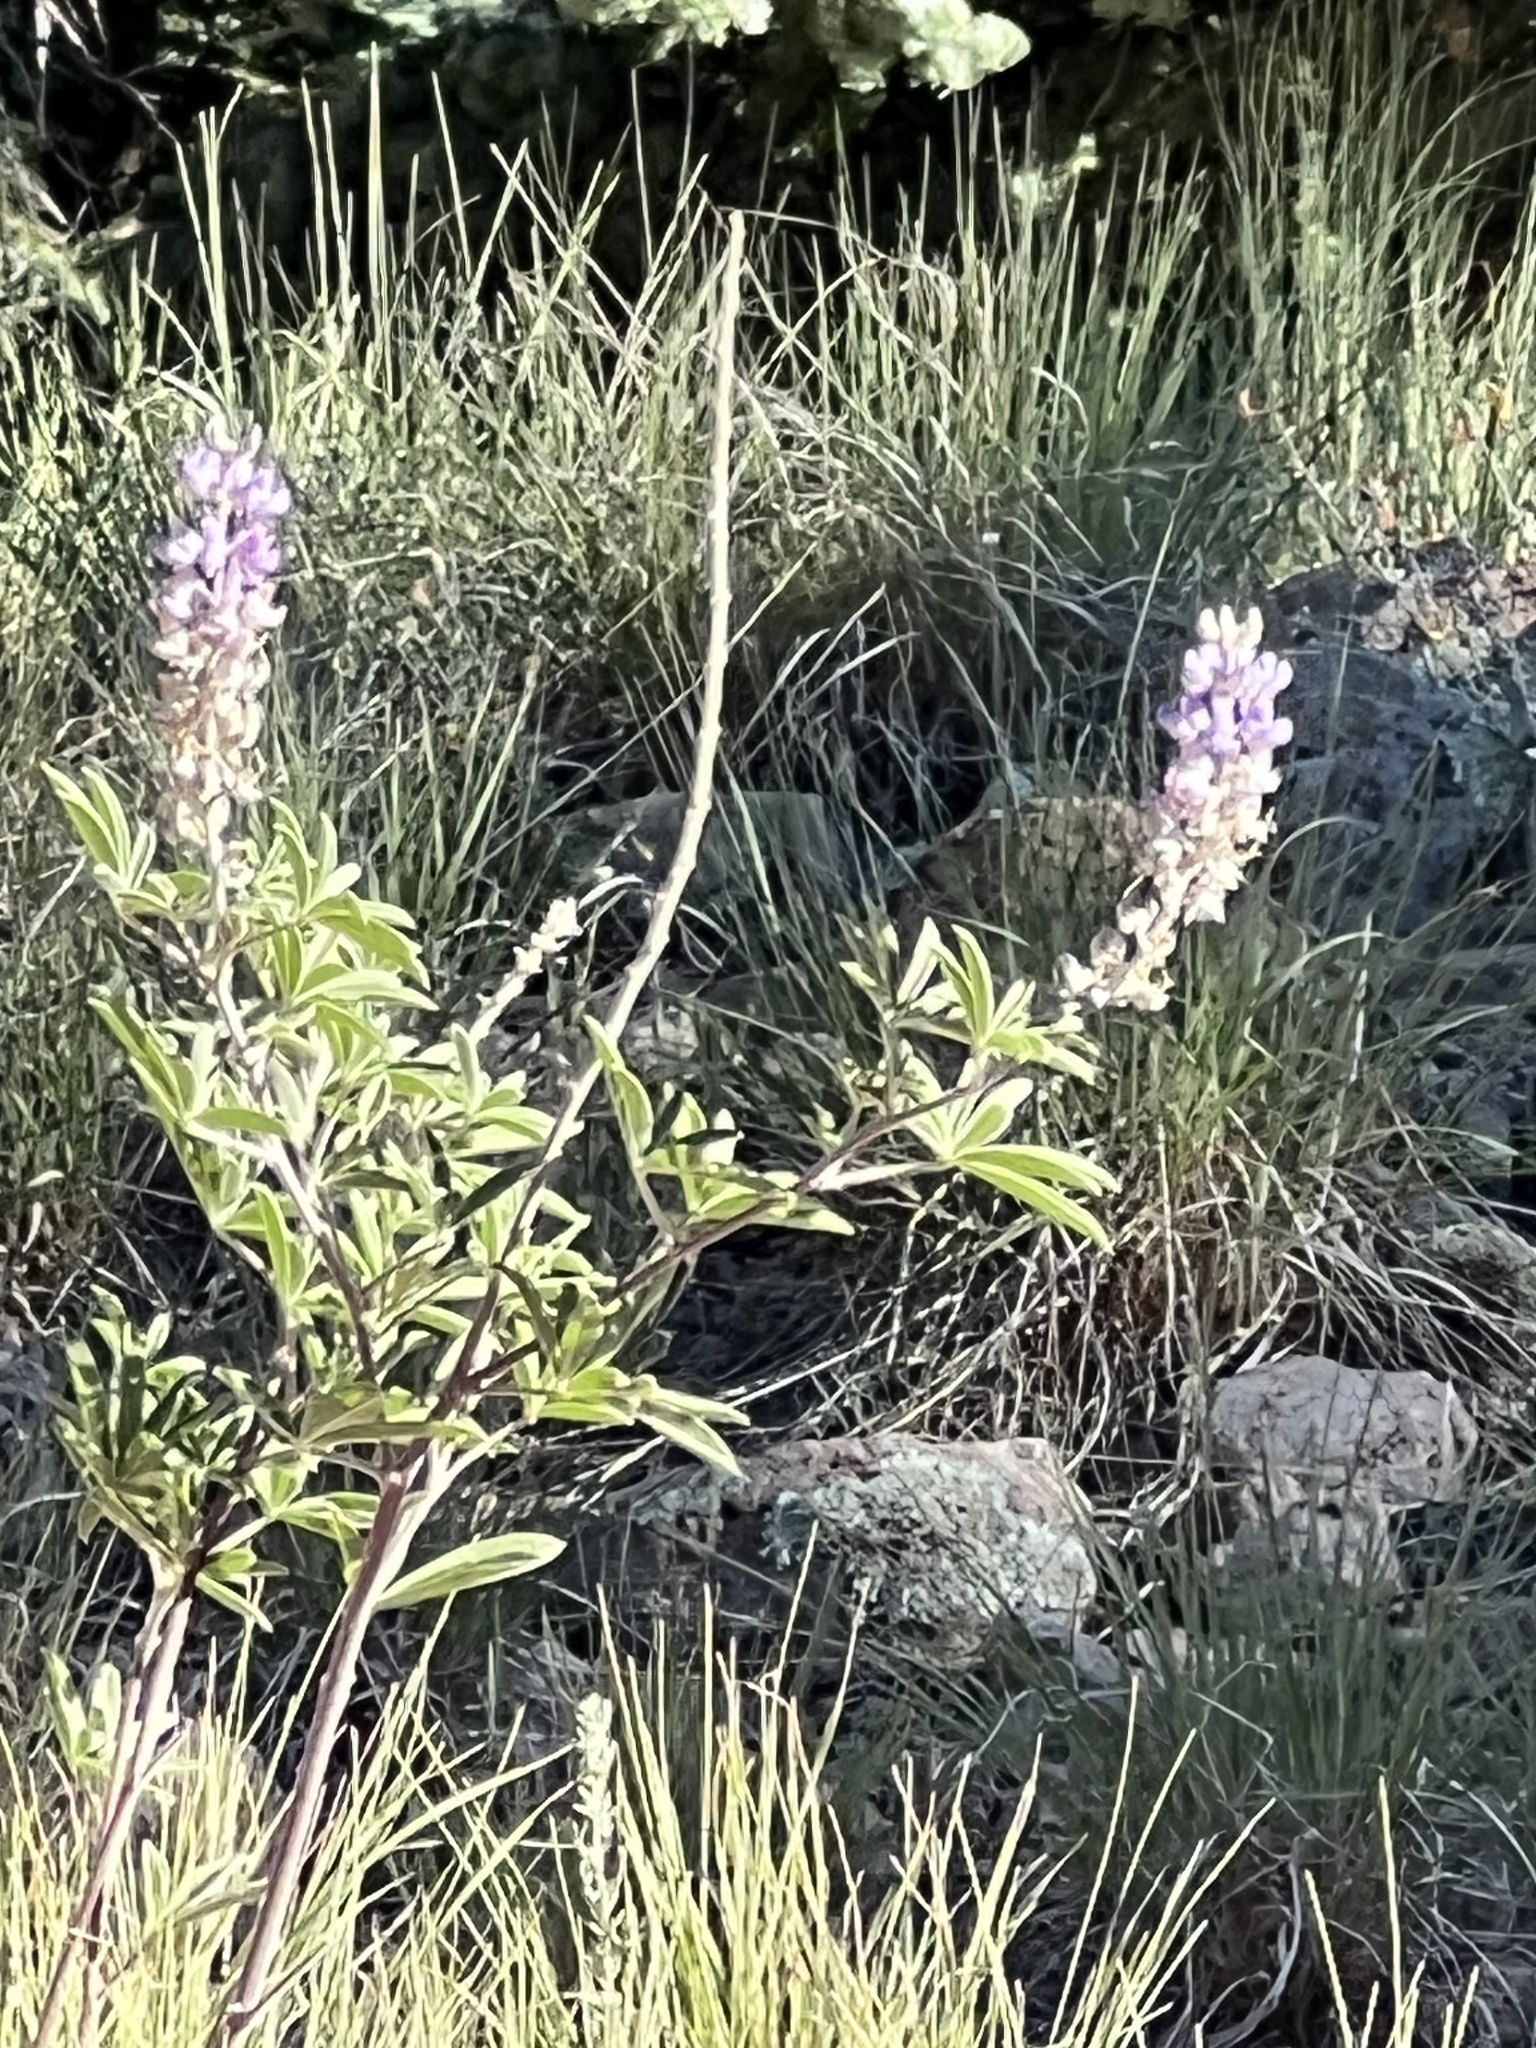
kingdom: Plantae
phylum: Tracheophyta
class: Magnoliopsida
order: Fabales
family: Fabaceae
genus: Lupinus
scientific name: Lupinus argenteus
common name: Silvery lupine
